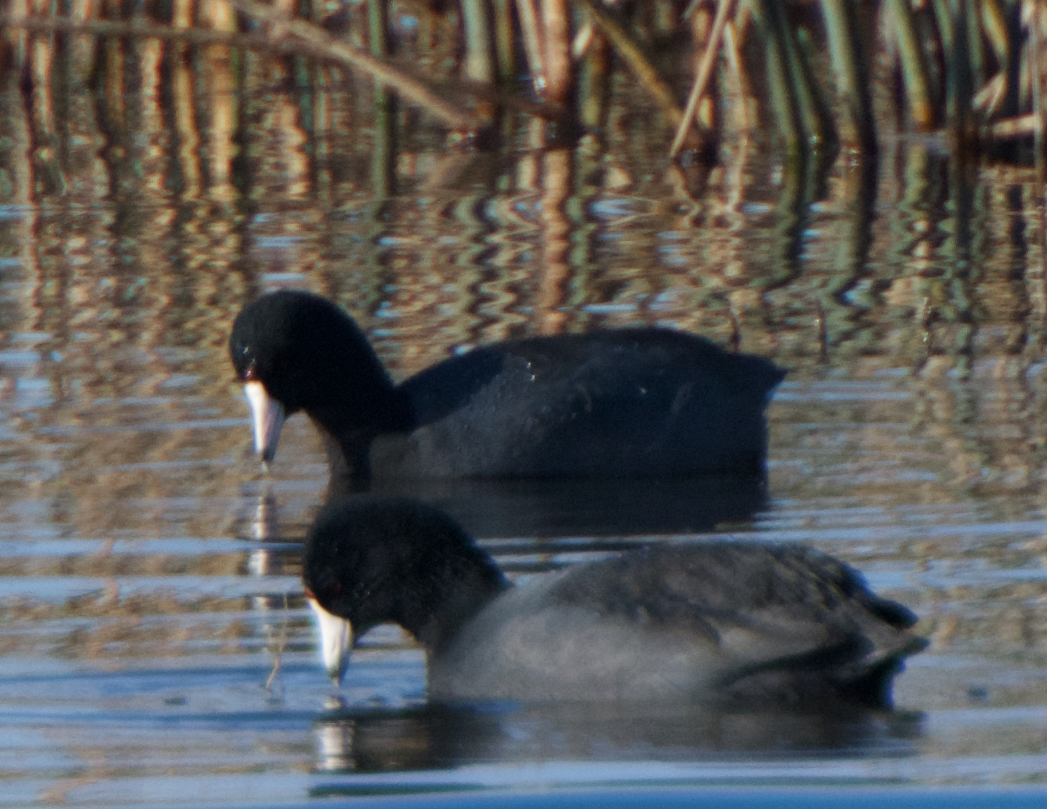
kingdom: Animalia
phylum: Chordata
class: Aves
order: Gruiformes
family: Rallidae
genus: Fulica
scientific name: Fulica americana
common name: American coot
